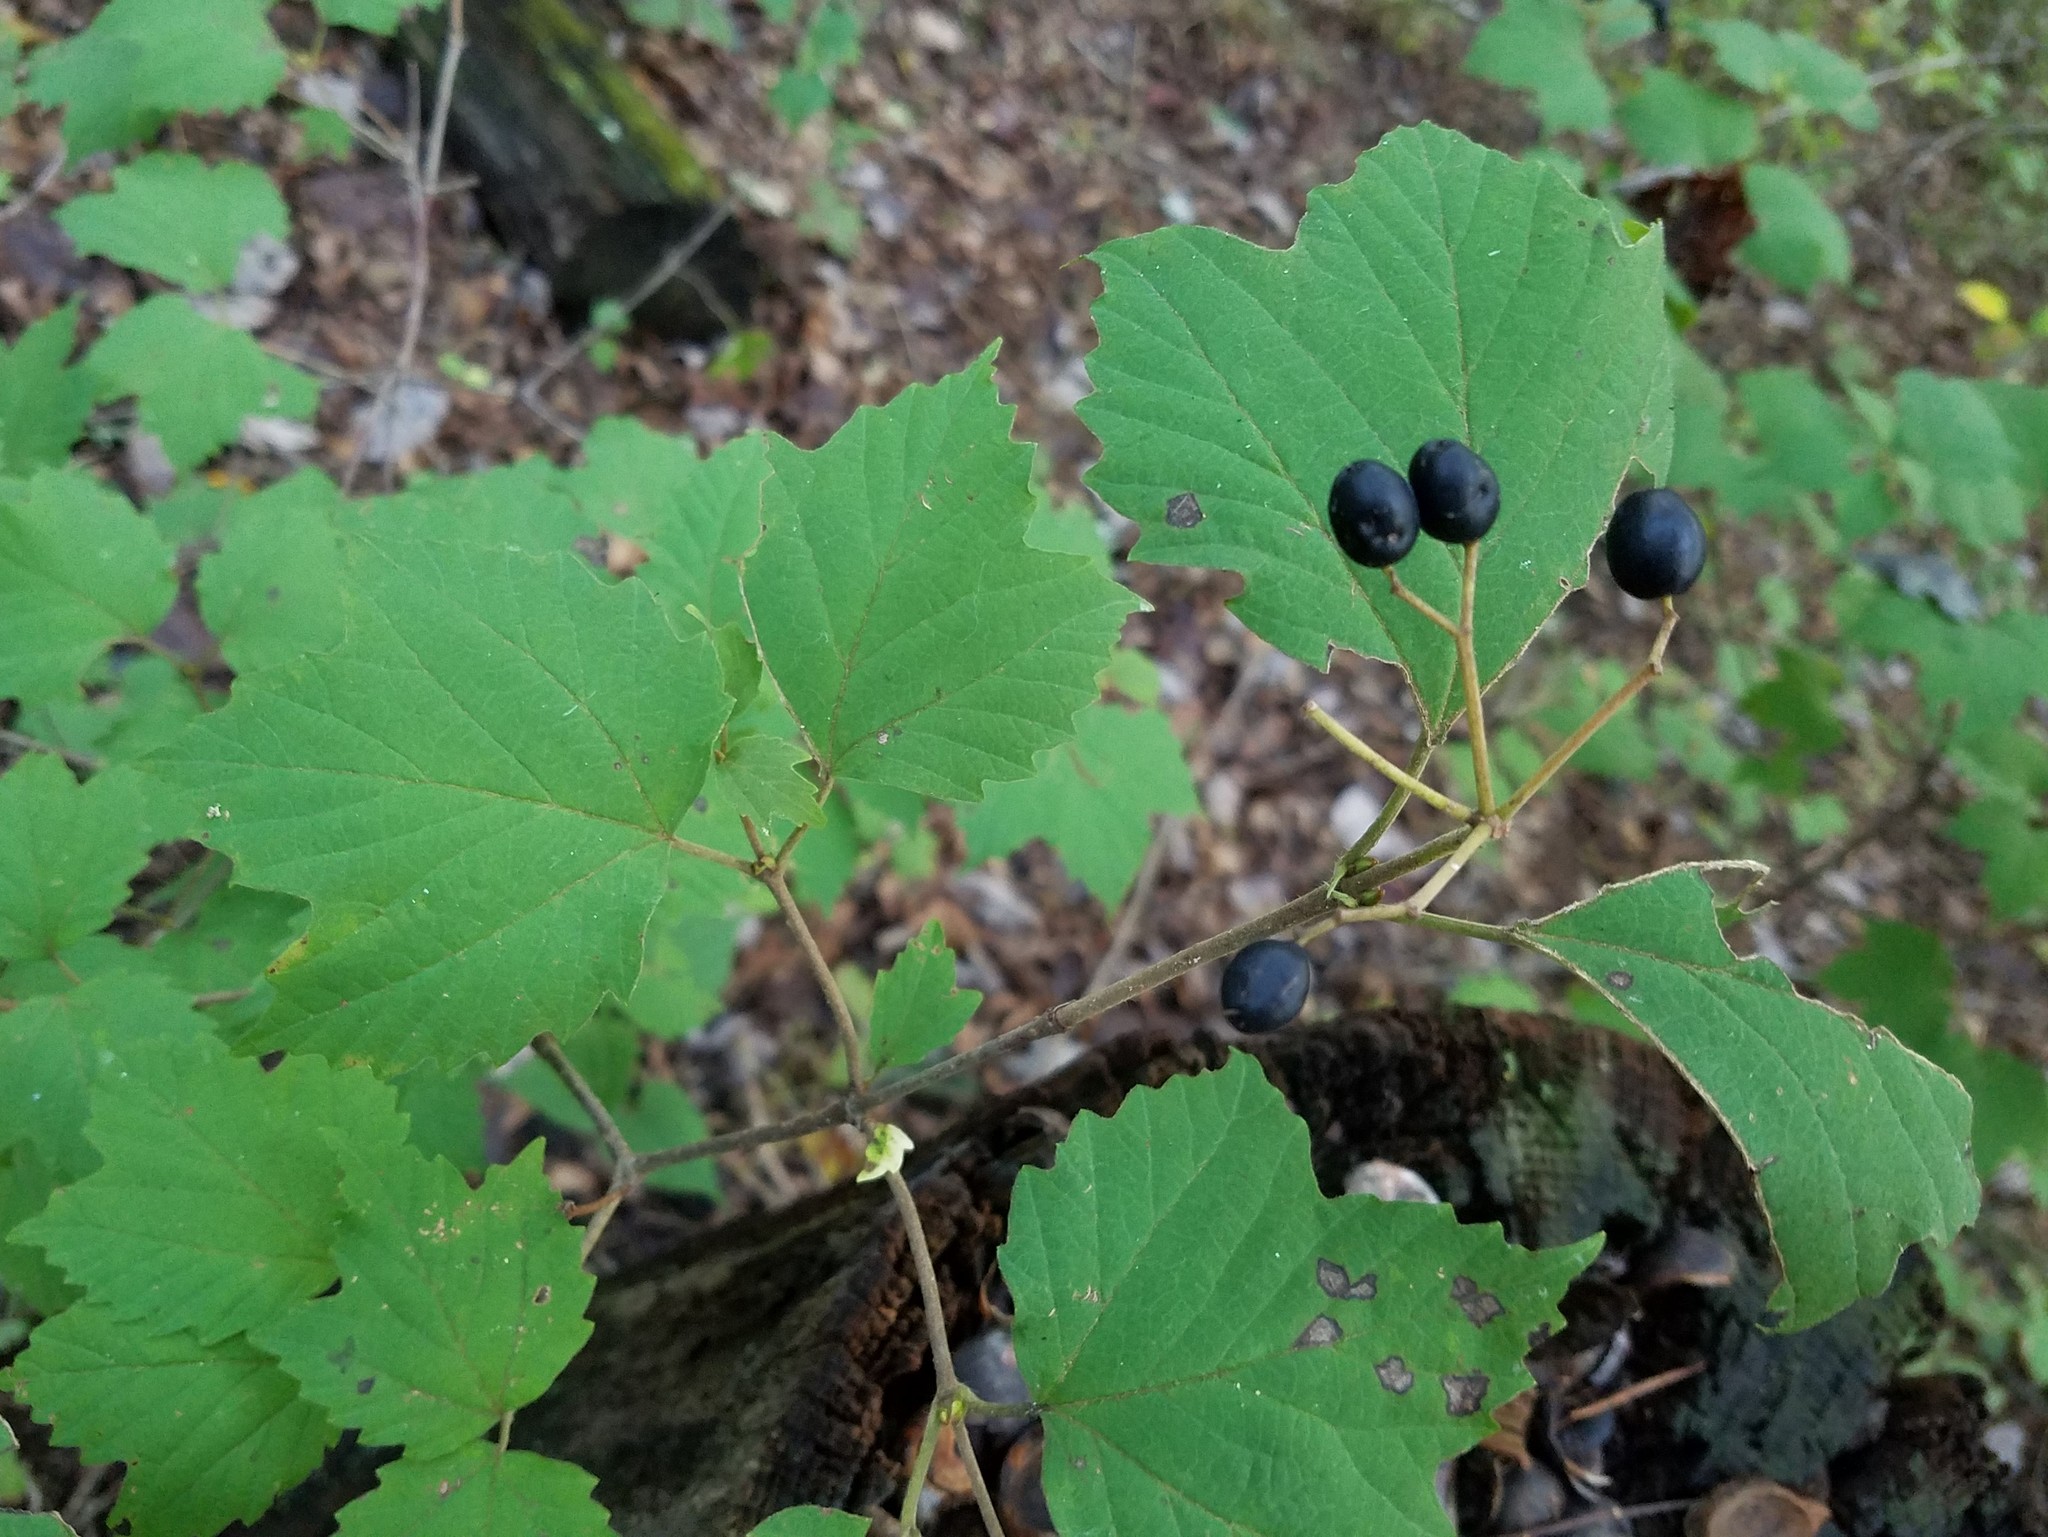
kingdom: Plantae
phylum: Tracheophyta
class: Magnoliopsida
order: Dipsacales
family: Viburnaceae
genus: Viburnum
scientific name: Viburnum acerifolium
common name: Dockmackie
